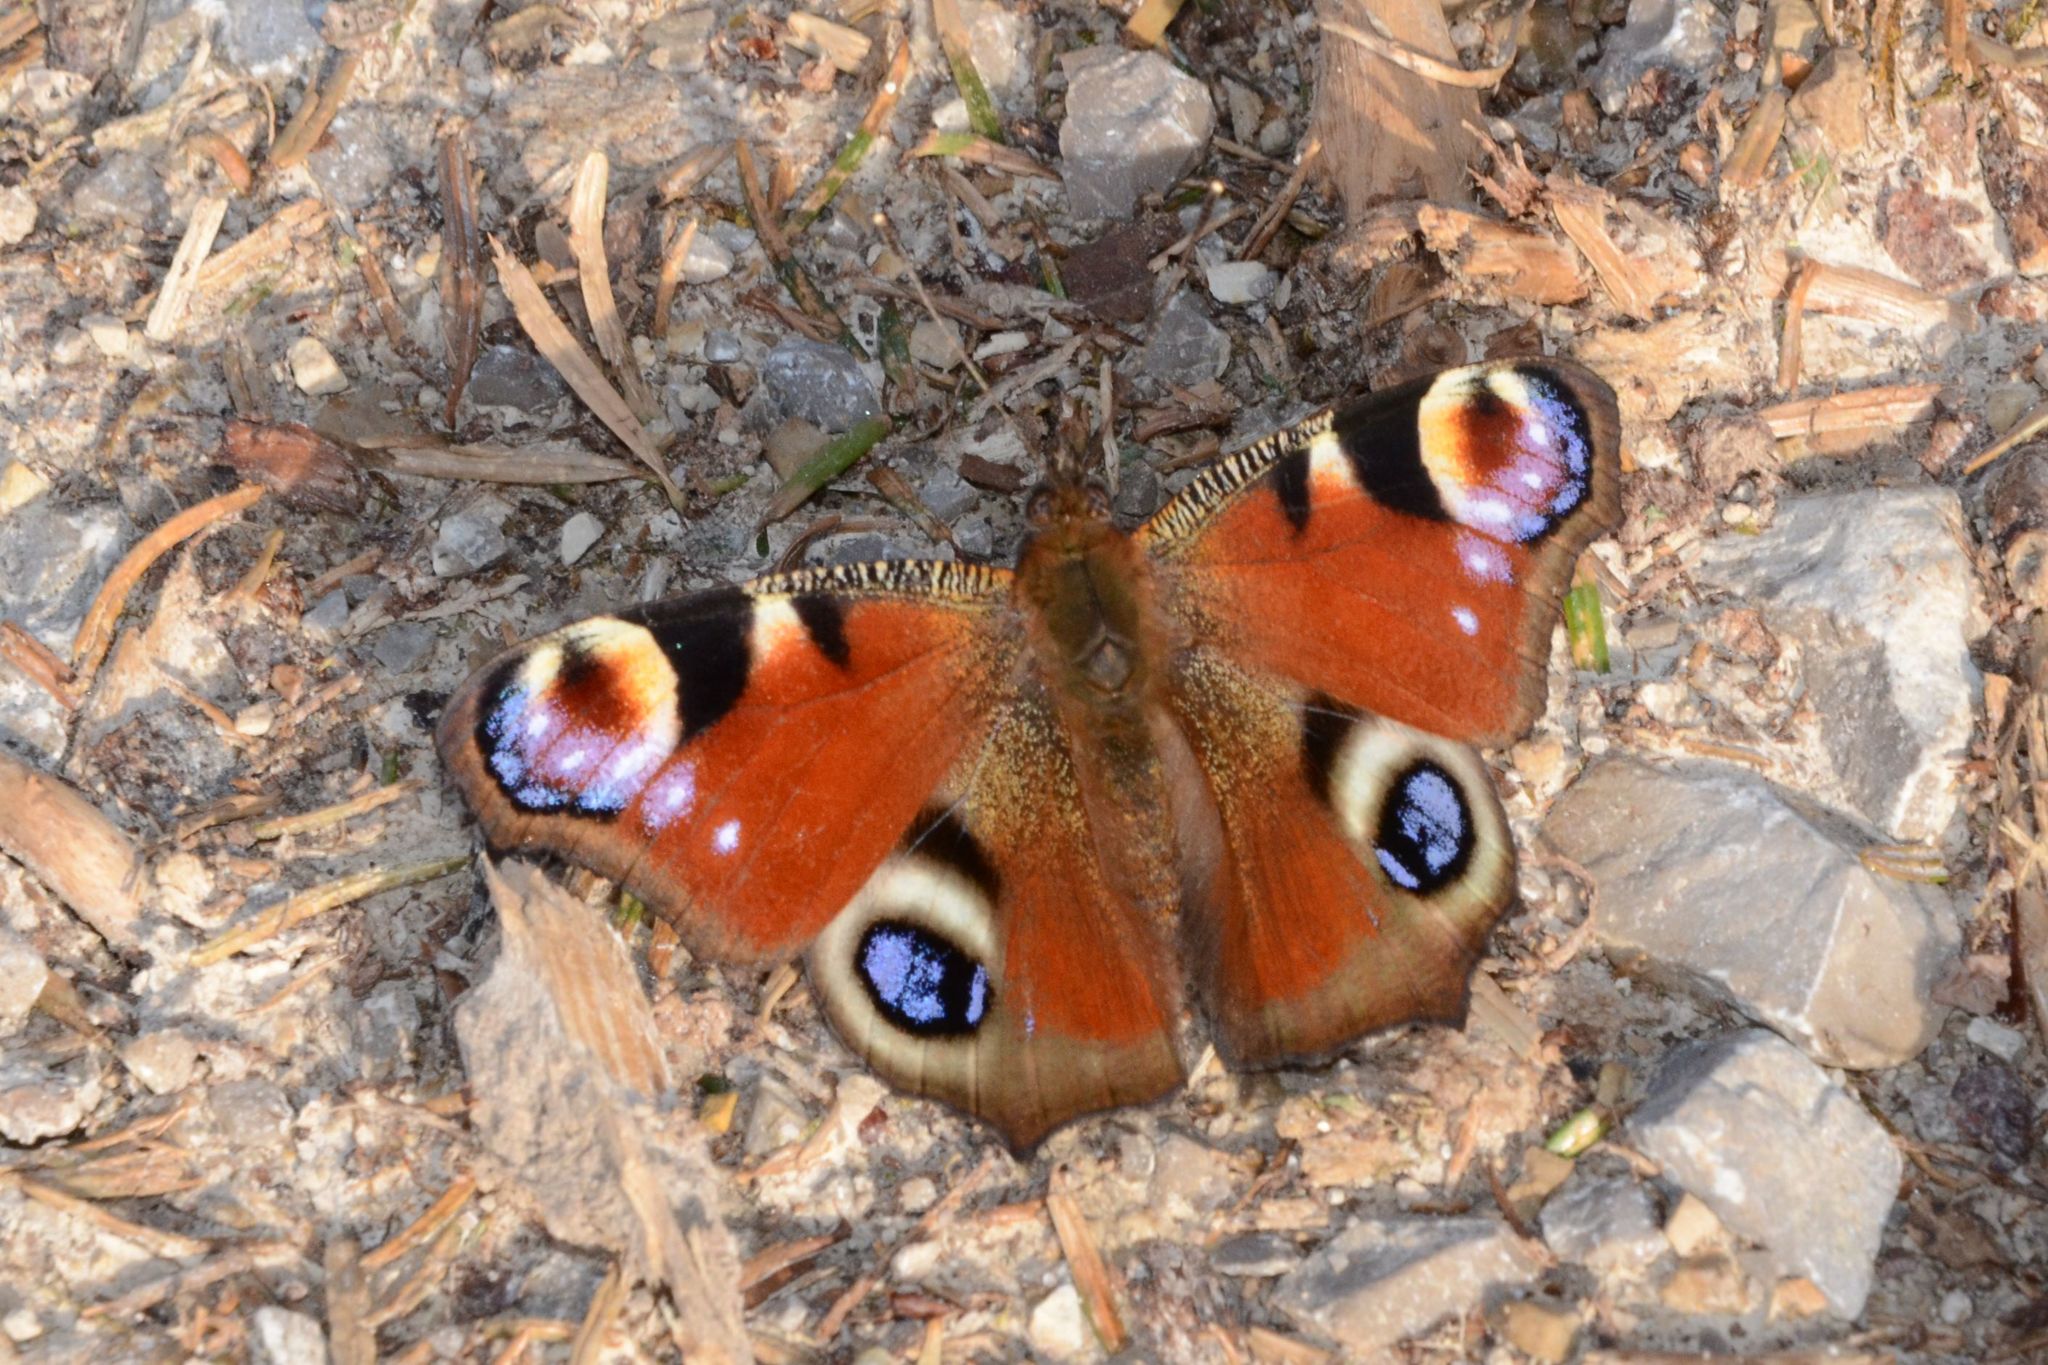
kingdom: Animalia
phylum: Arthropoda
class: Insecta
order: Lepidoptera
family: Nymphalidae
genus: Aglais
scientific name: Aglais io
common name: Peacock
